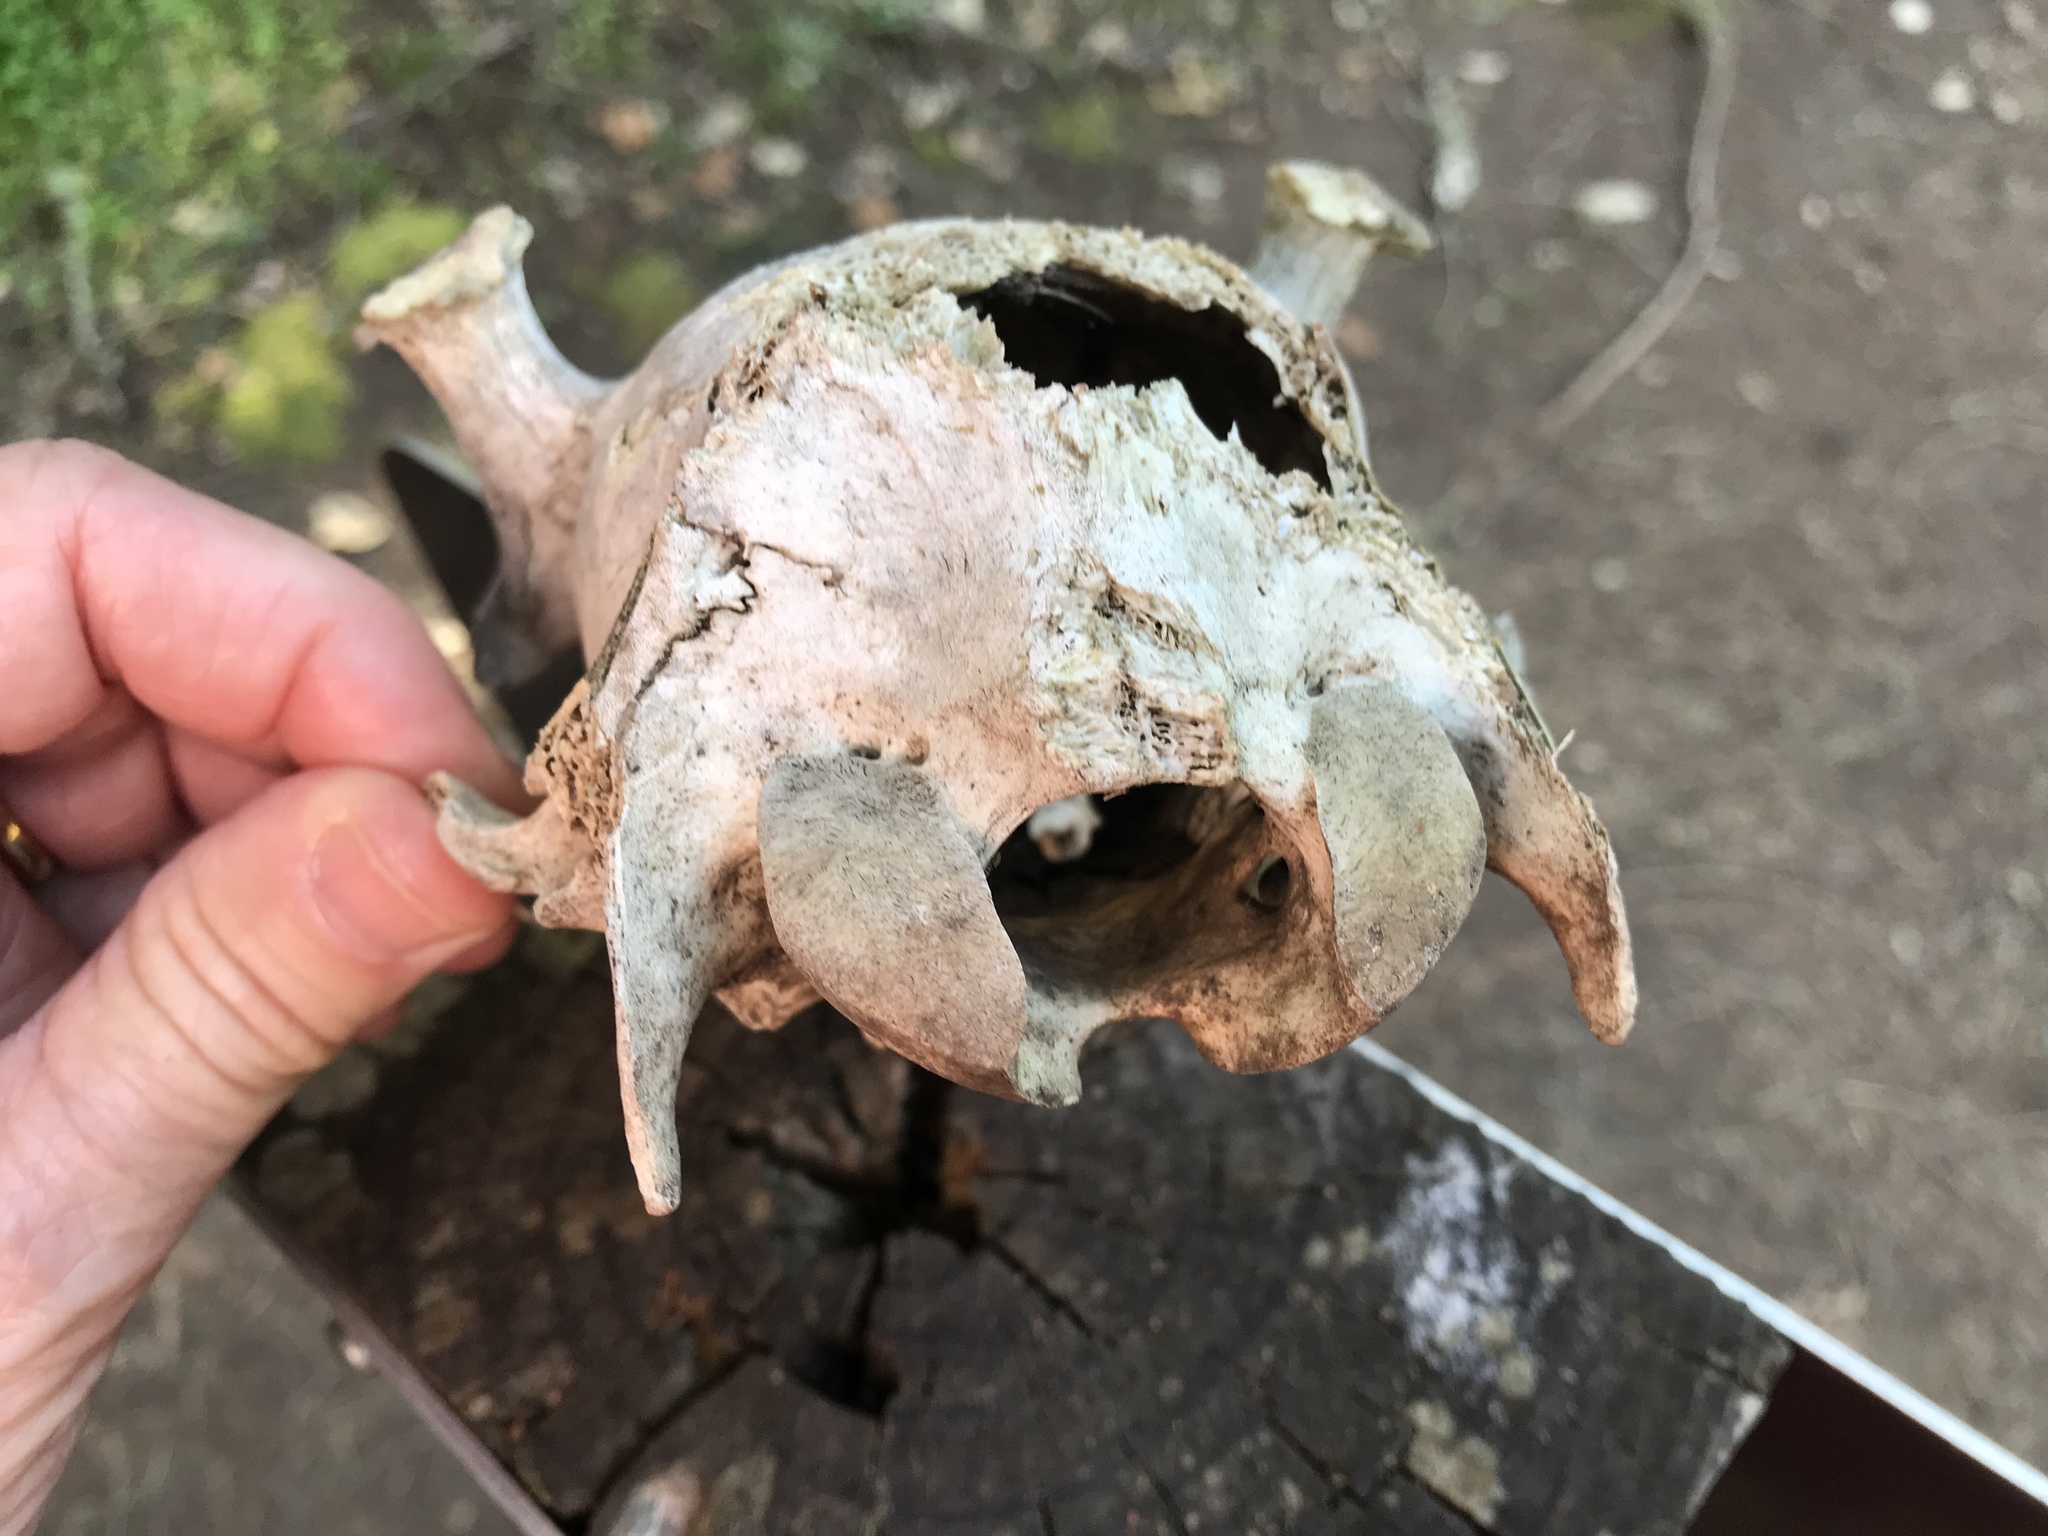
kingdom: Animalia
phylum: Chordata
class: Mammalia
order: Artiodactyla
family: Cervidae
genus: Odocoileus
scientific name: Odocoileus hemionus
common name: Mule deer
